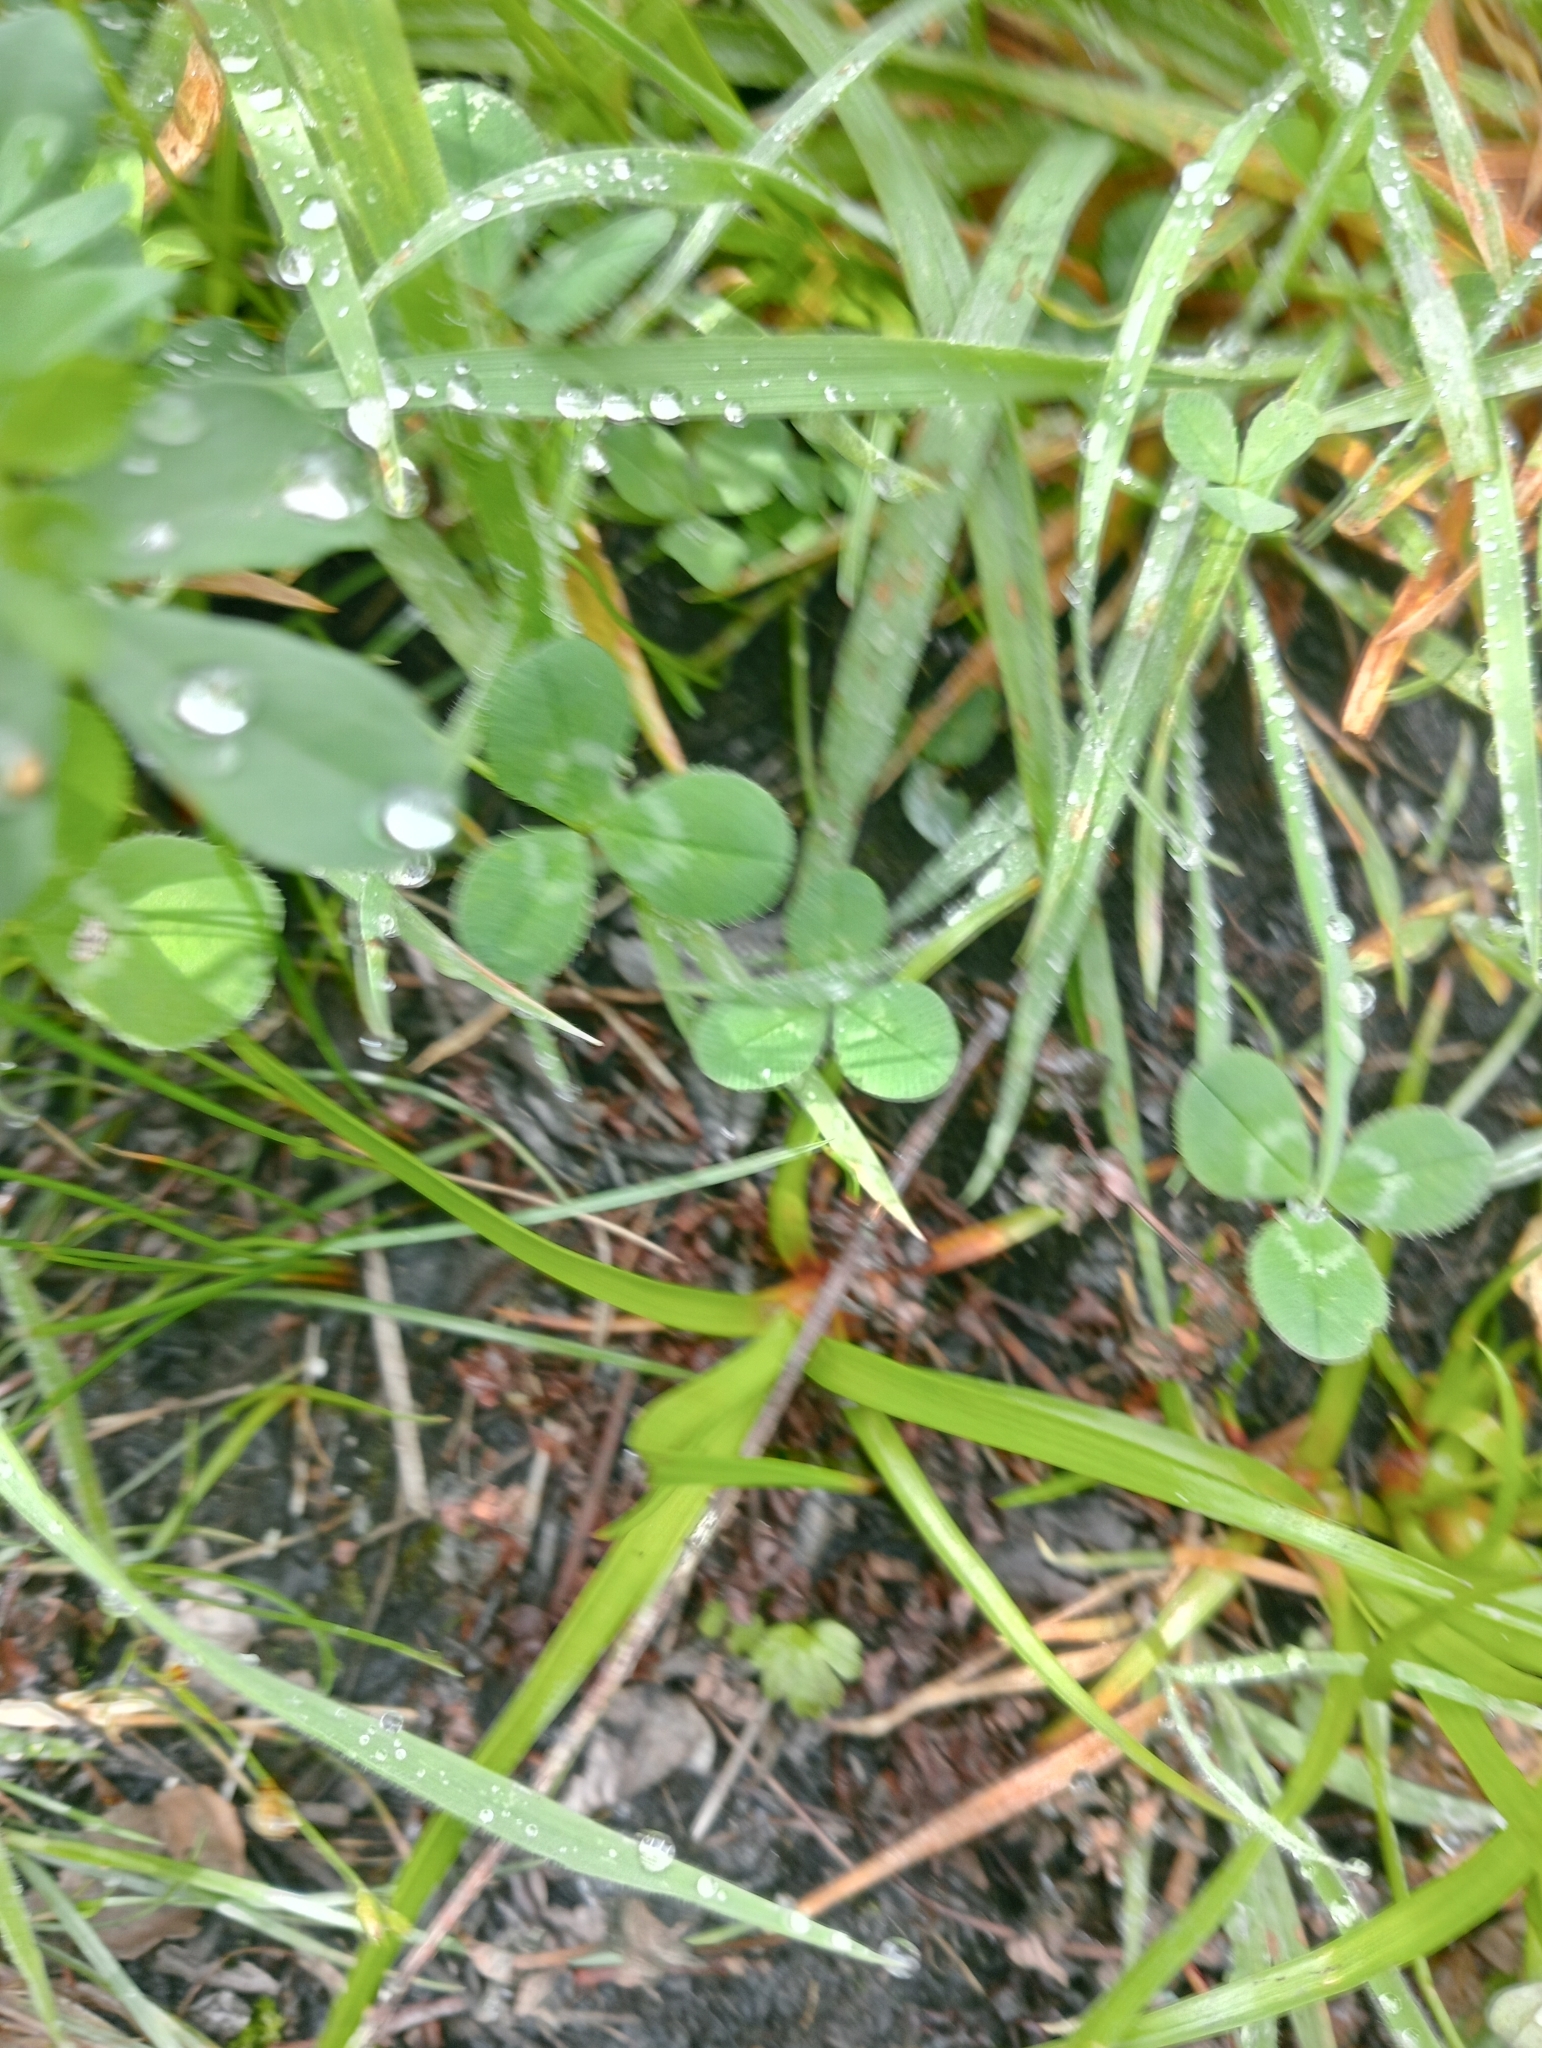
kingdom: Plantae
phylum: Tracheophyta
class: Liliopsida
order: Poales
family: Juncaceae
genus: Juncus
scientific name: Juncus planifolius
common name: Broadleaf rush
